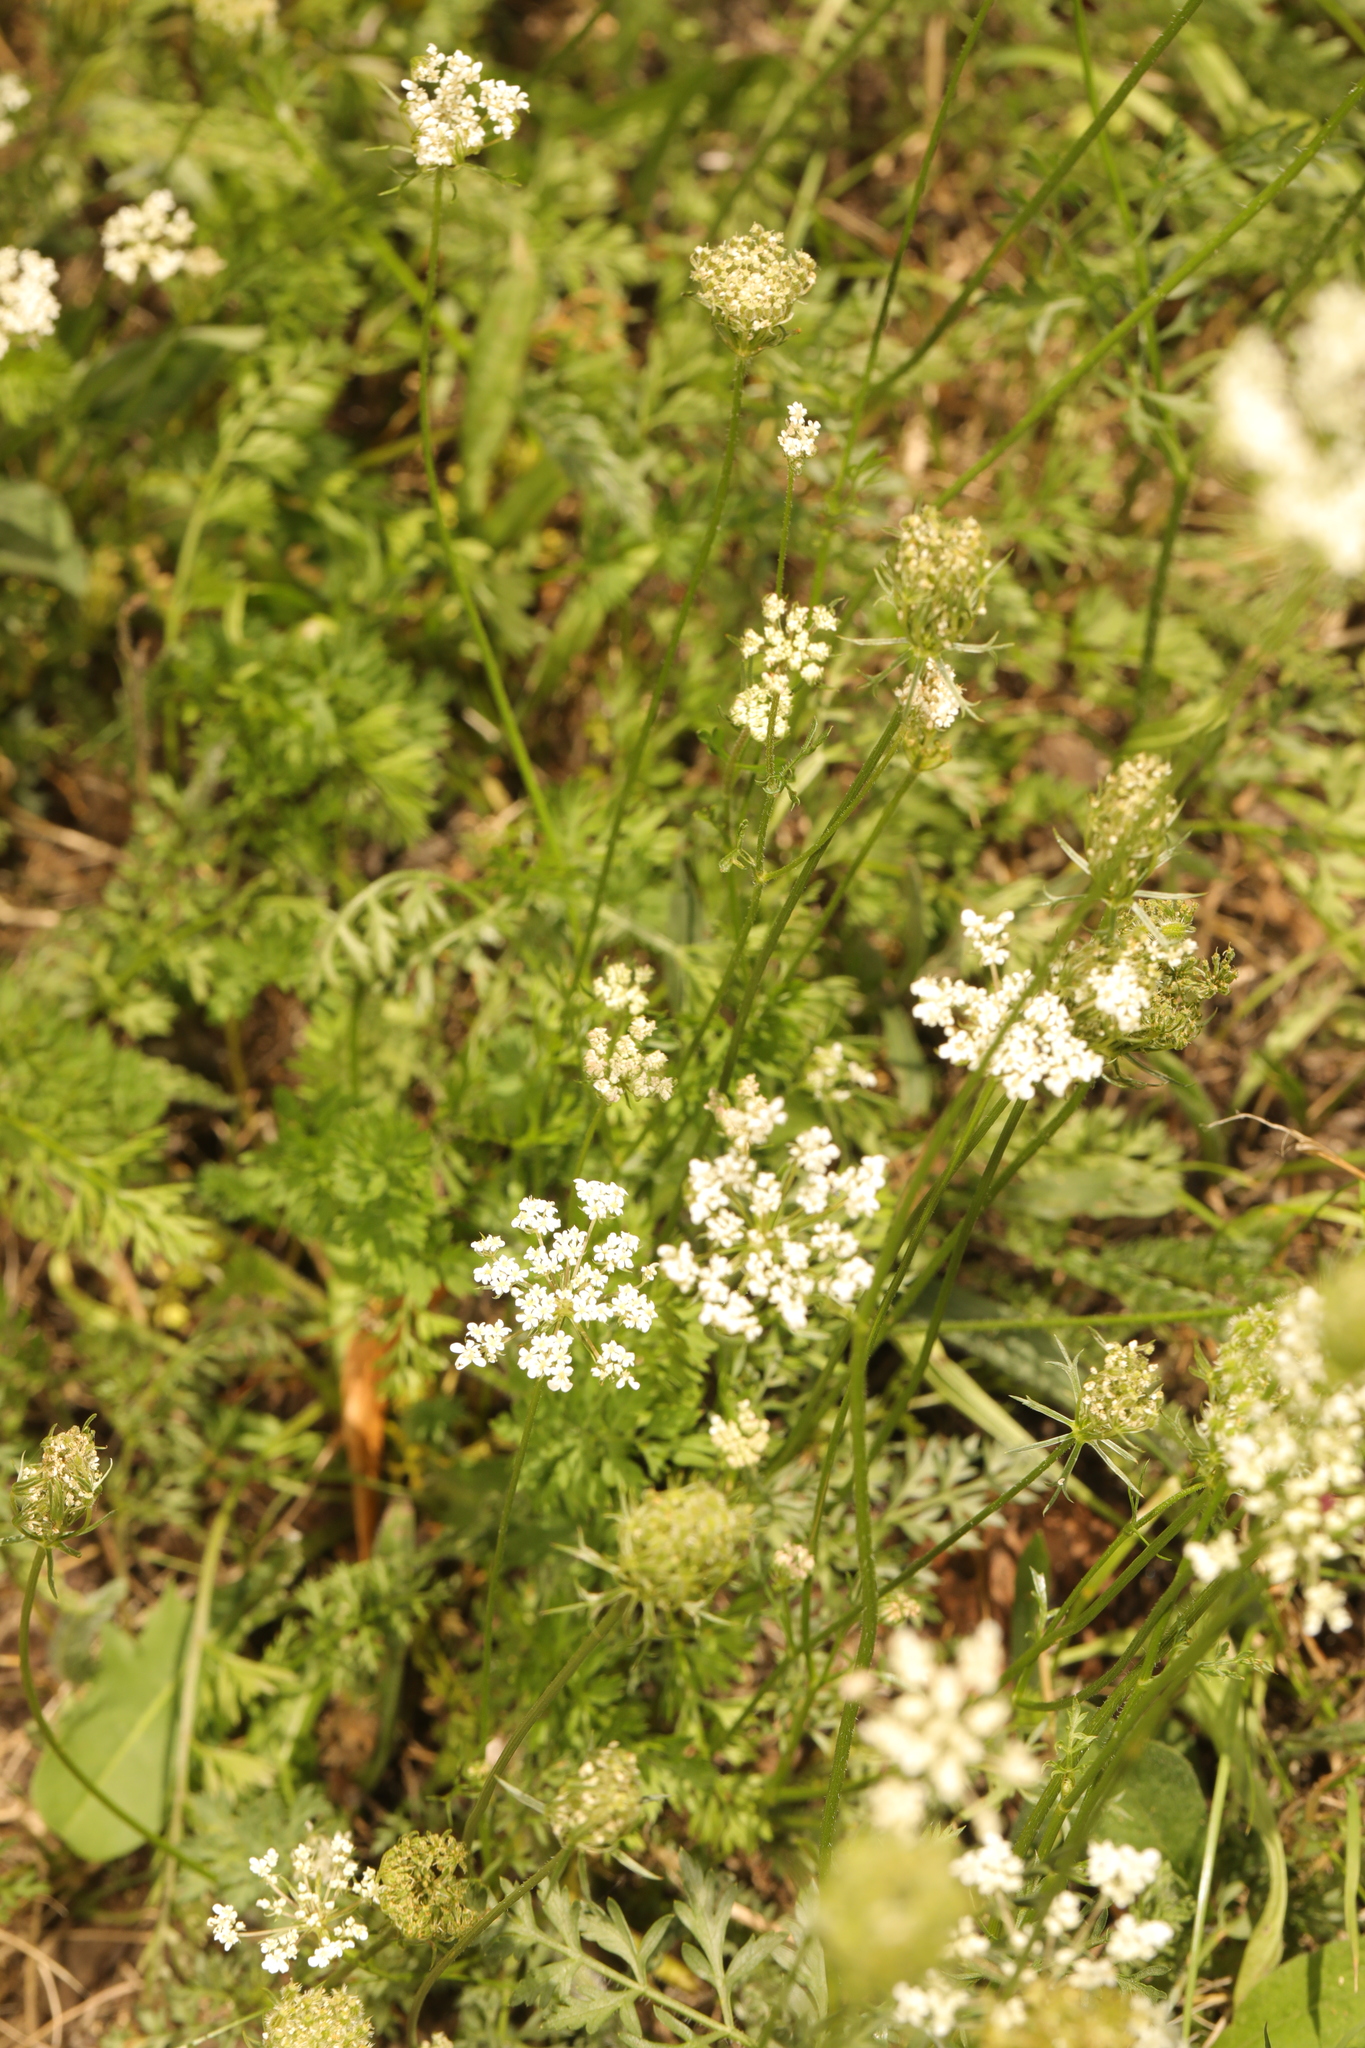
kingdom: Plantae
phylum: Tracheophyta
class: Magnoliopsida
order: Apiales
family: Apiaceae
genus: Daucus
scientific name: Daucus carota
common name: Wild carrot
